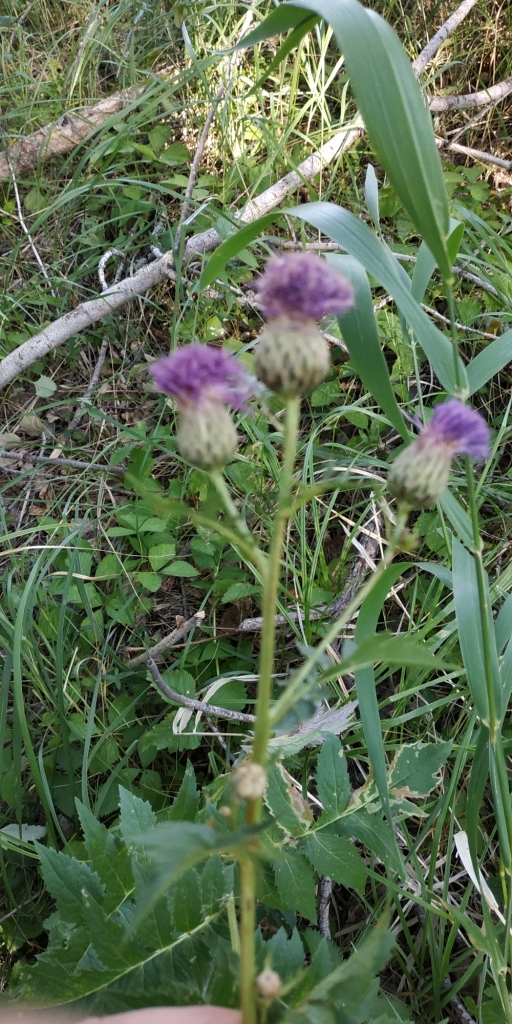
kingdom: Plantae
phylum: Tracheophyta
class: Magnoliopsida
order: Asterales
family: Asteraceae
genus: Serratula
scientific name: Serratula coronata
